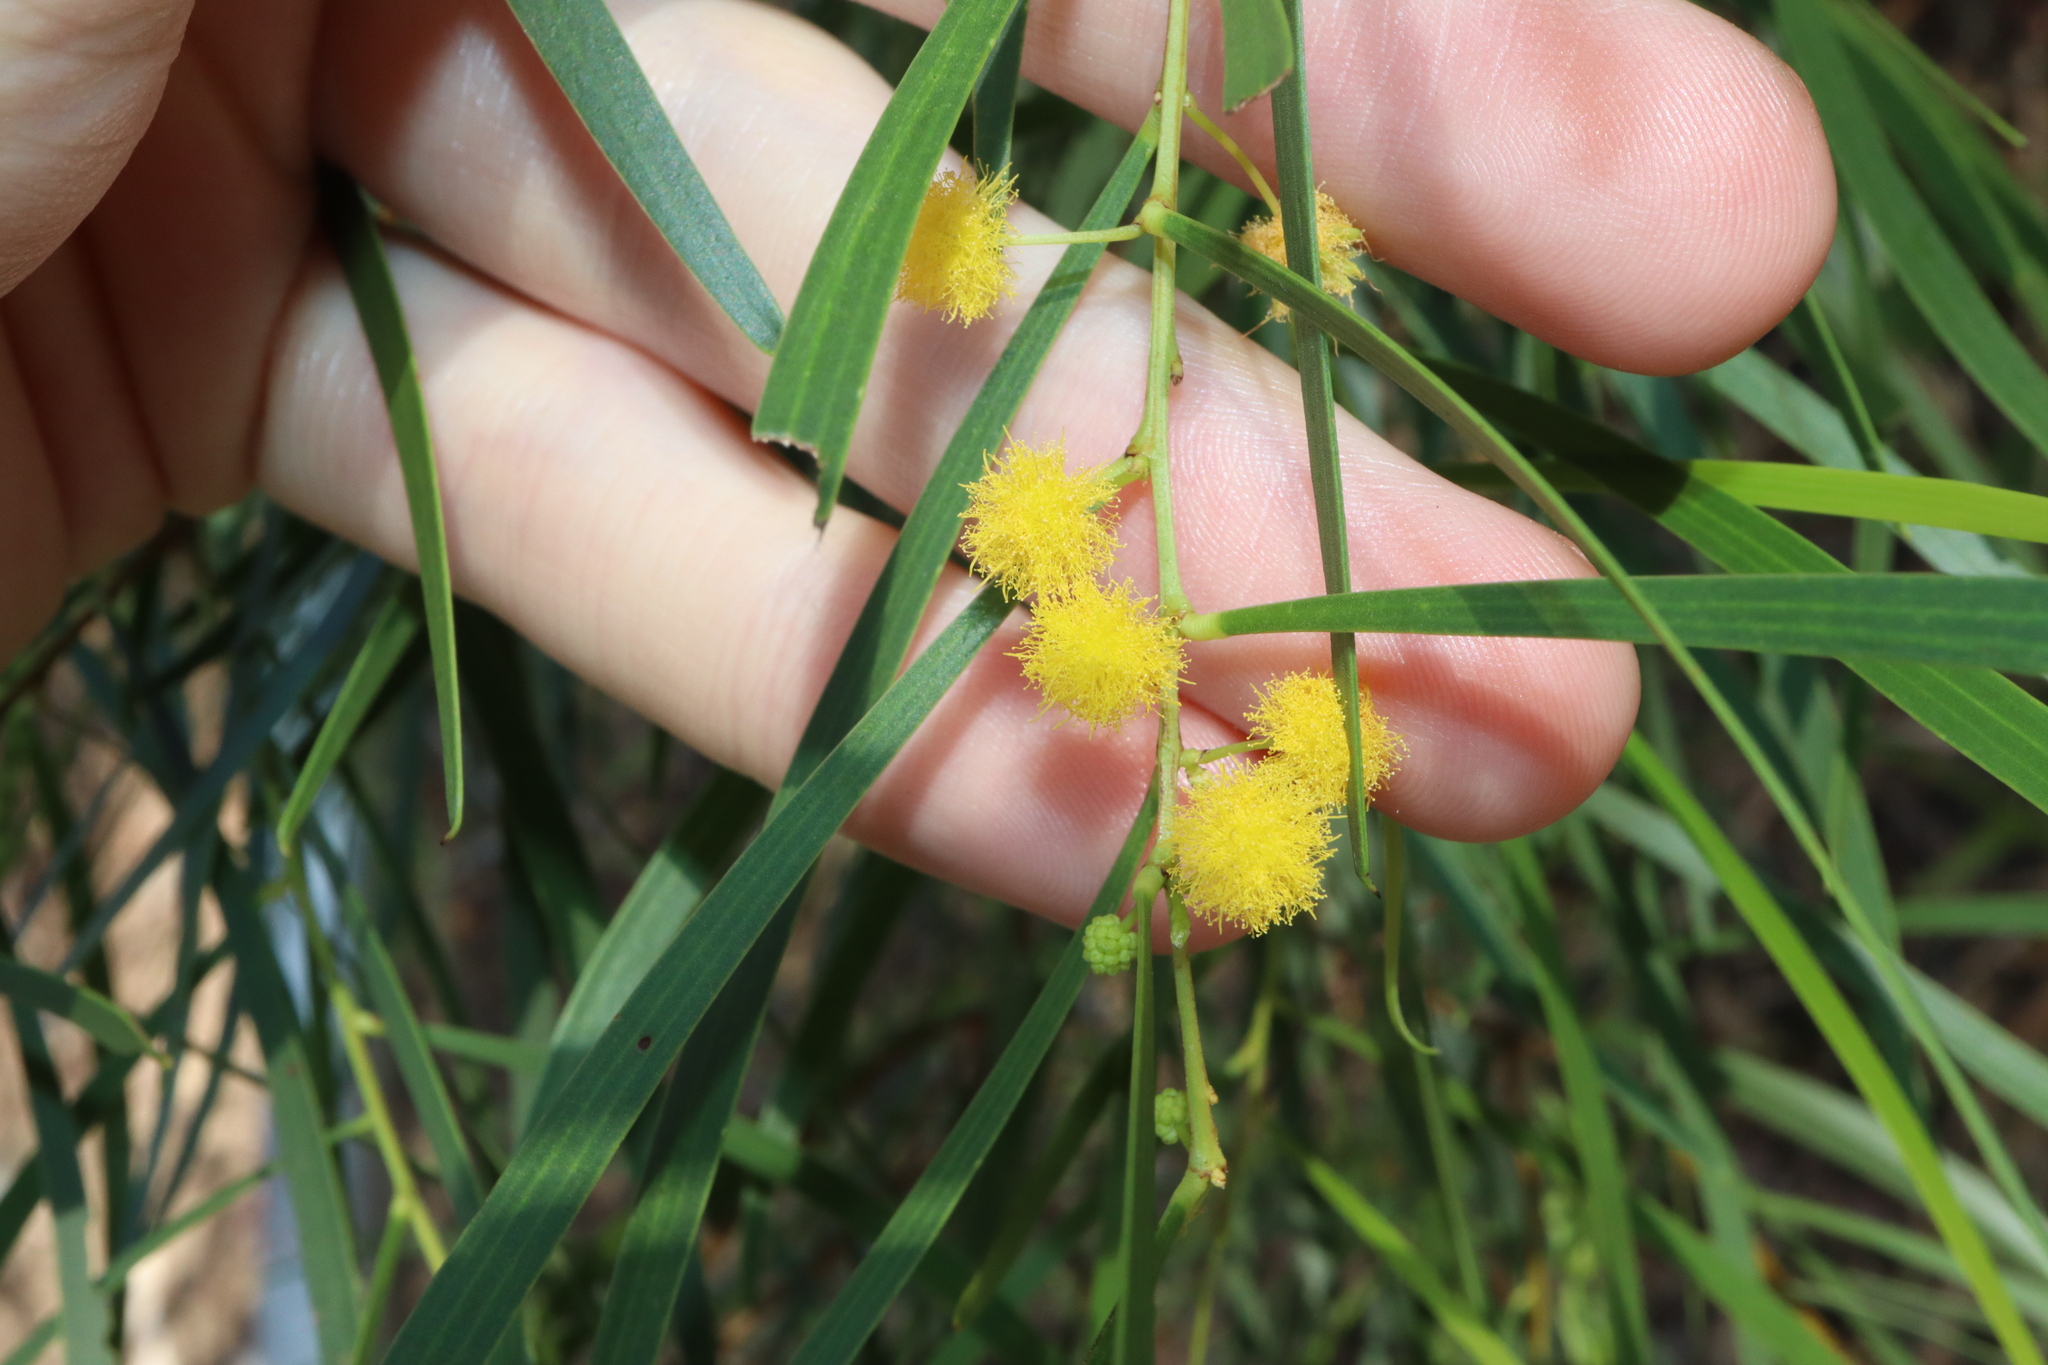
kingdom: Plantae
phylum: Tracheophyta
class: Magnoliopsida
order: Fabales
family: Fabaceae
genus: Acacia
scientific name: Acacia simsii
